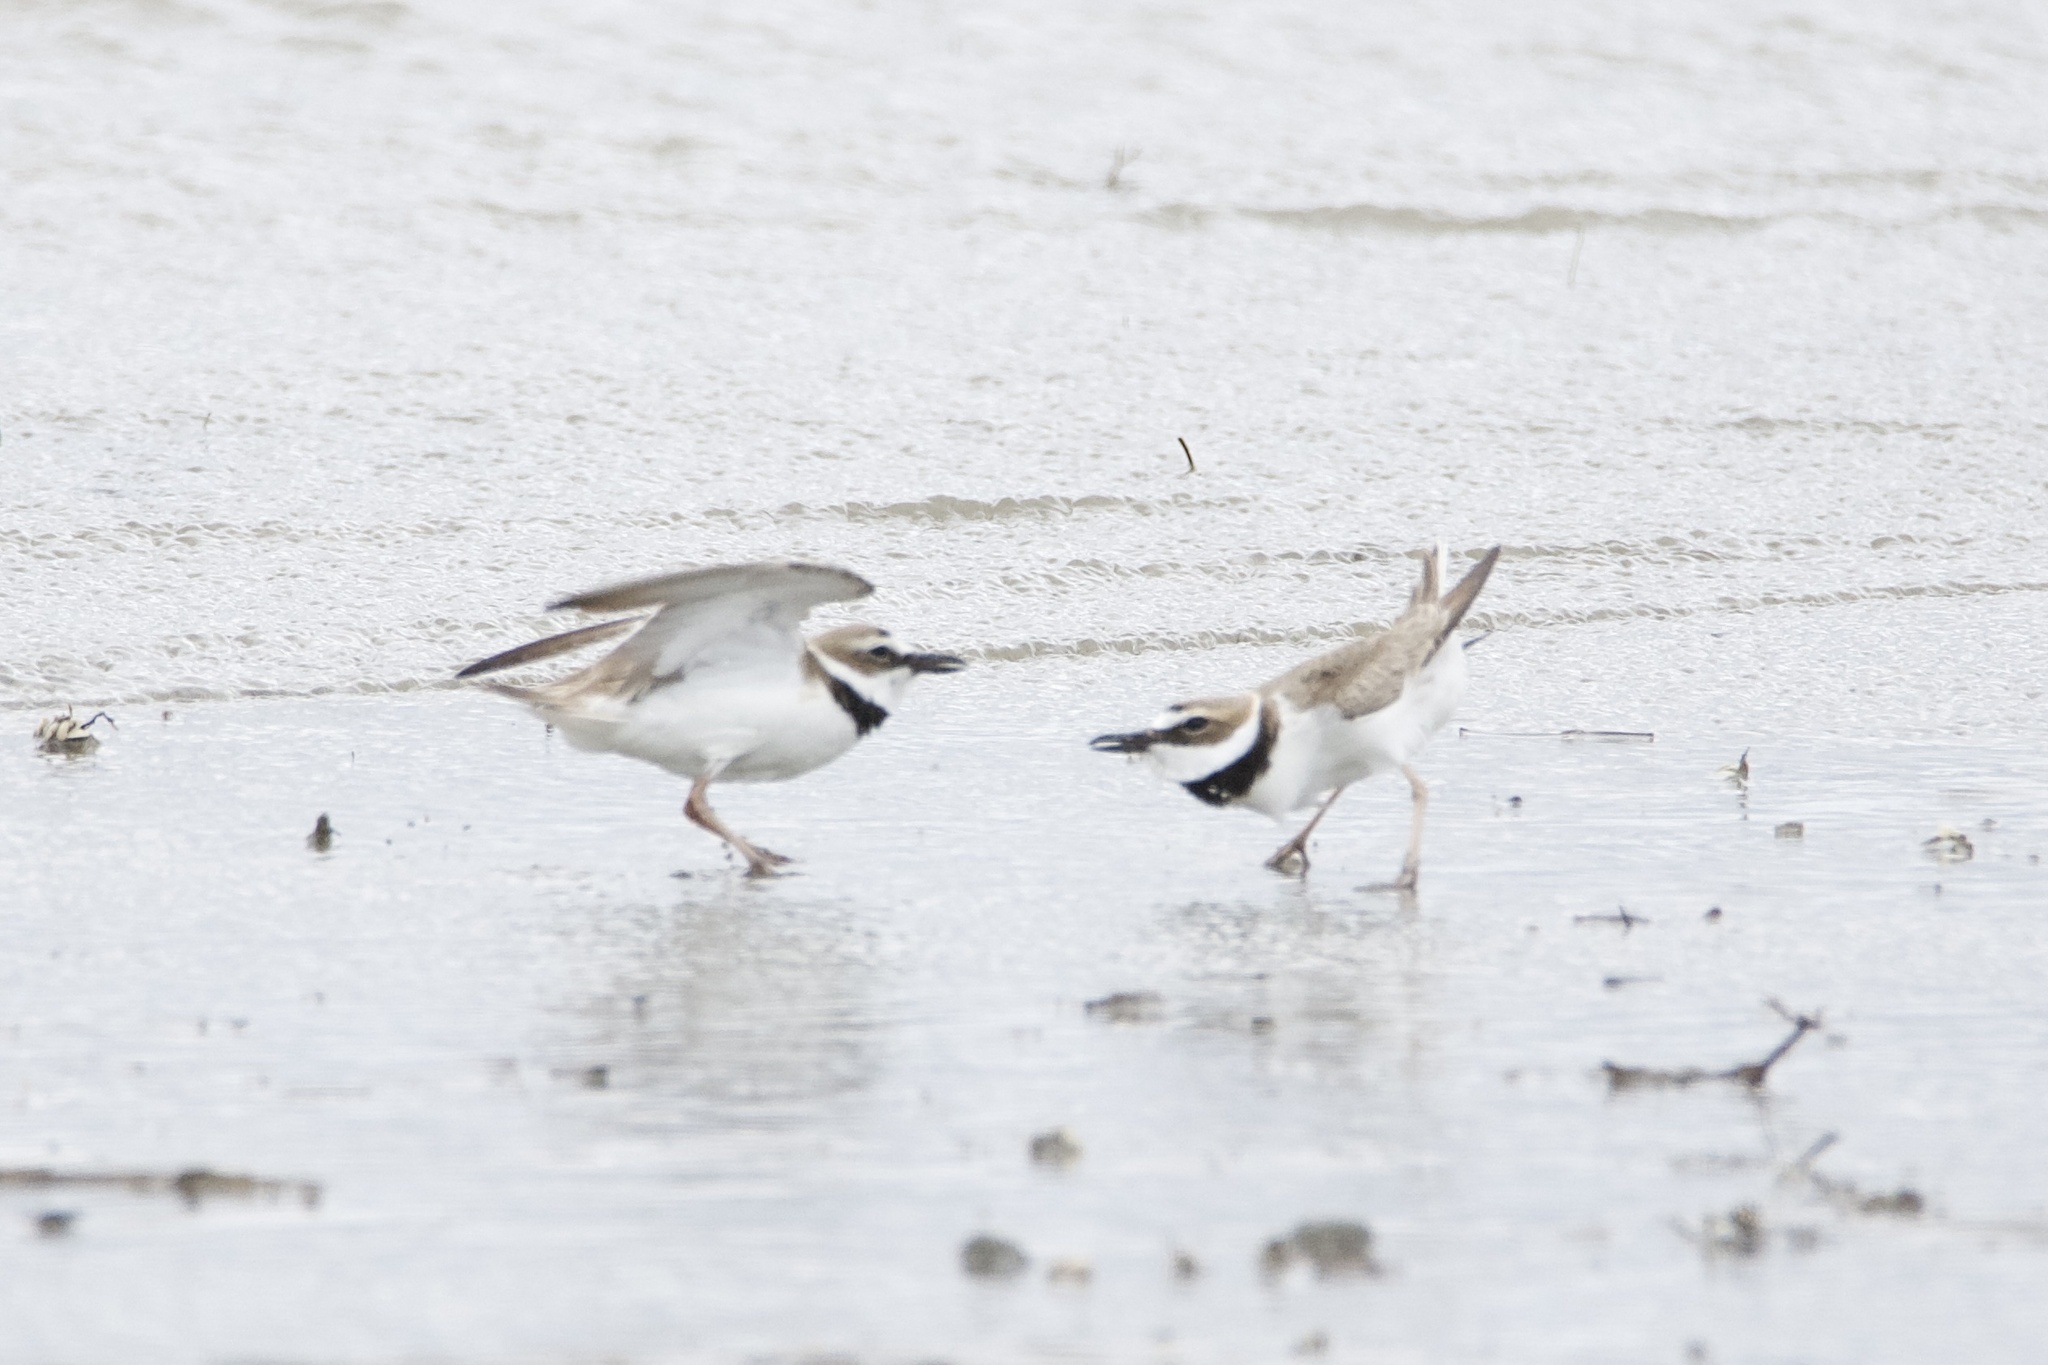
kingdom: Animalia
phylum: Chordata
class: Aves
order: Charadriiformes
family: Charadriidae
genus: Anarhynchus
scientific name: Anarhynchus
